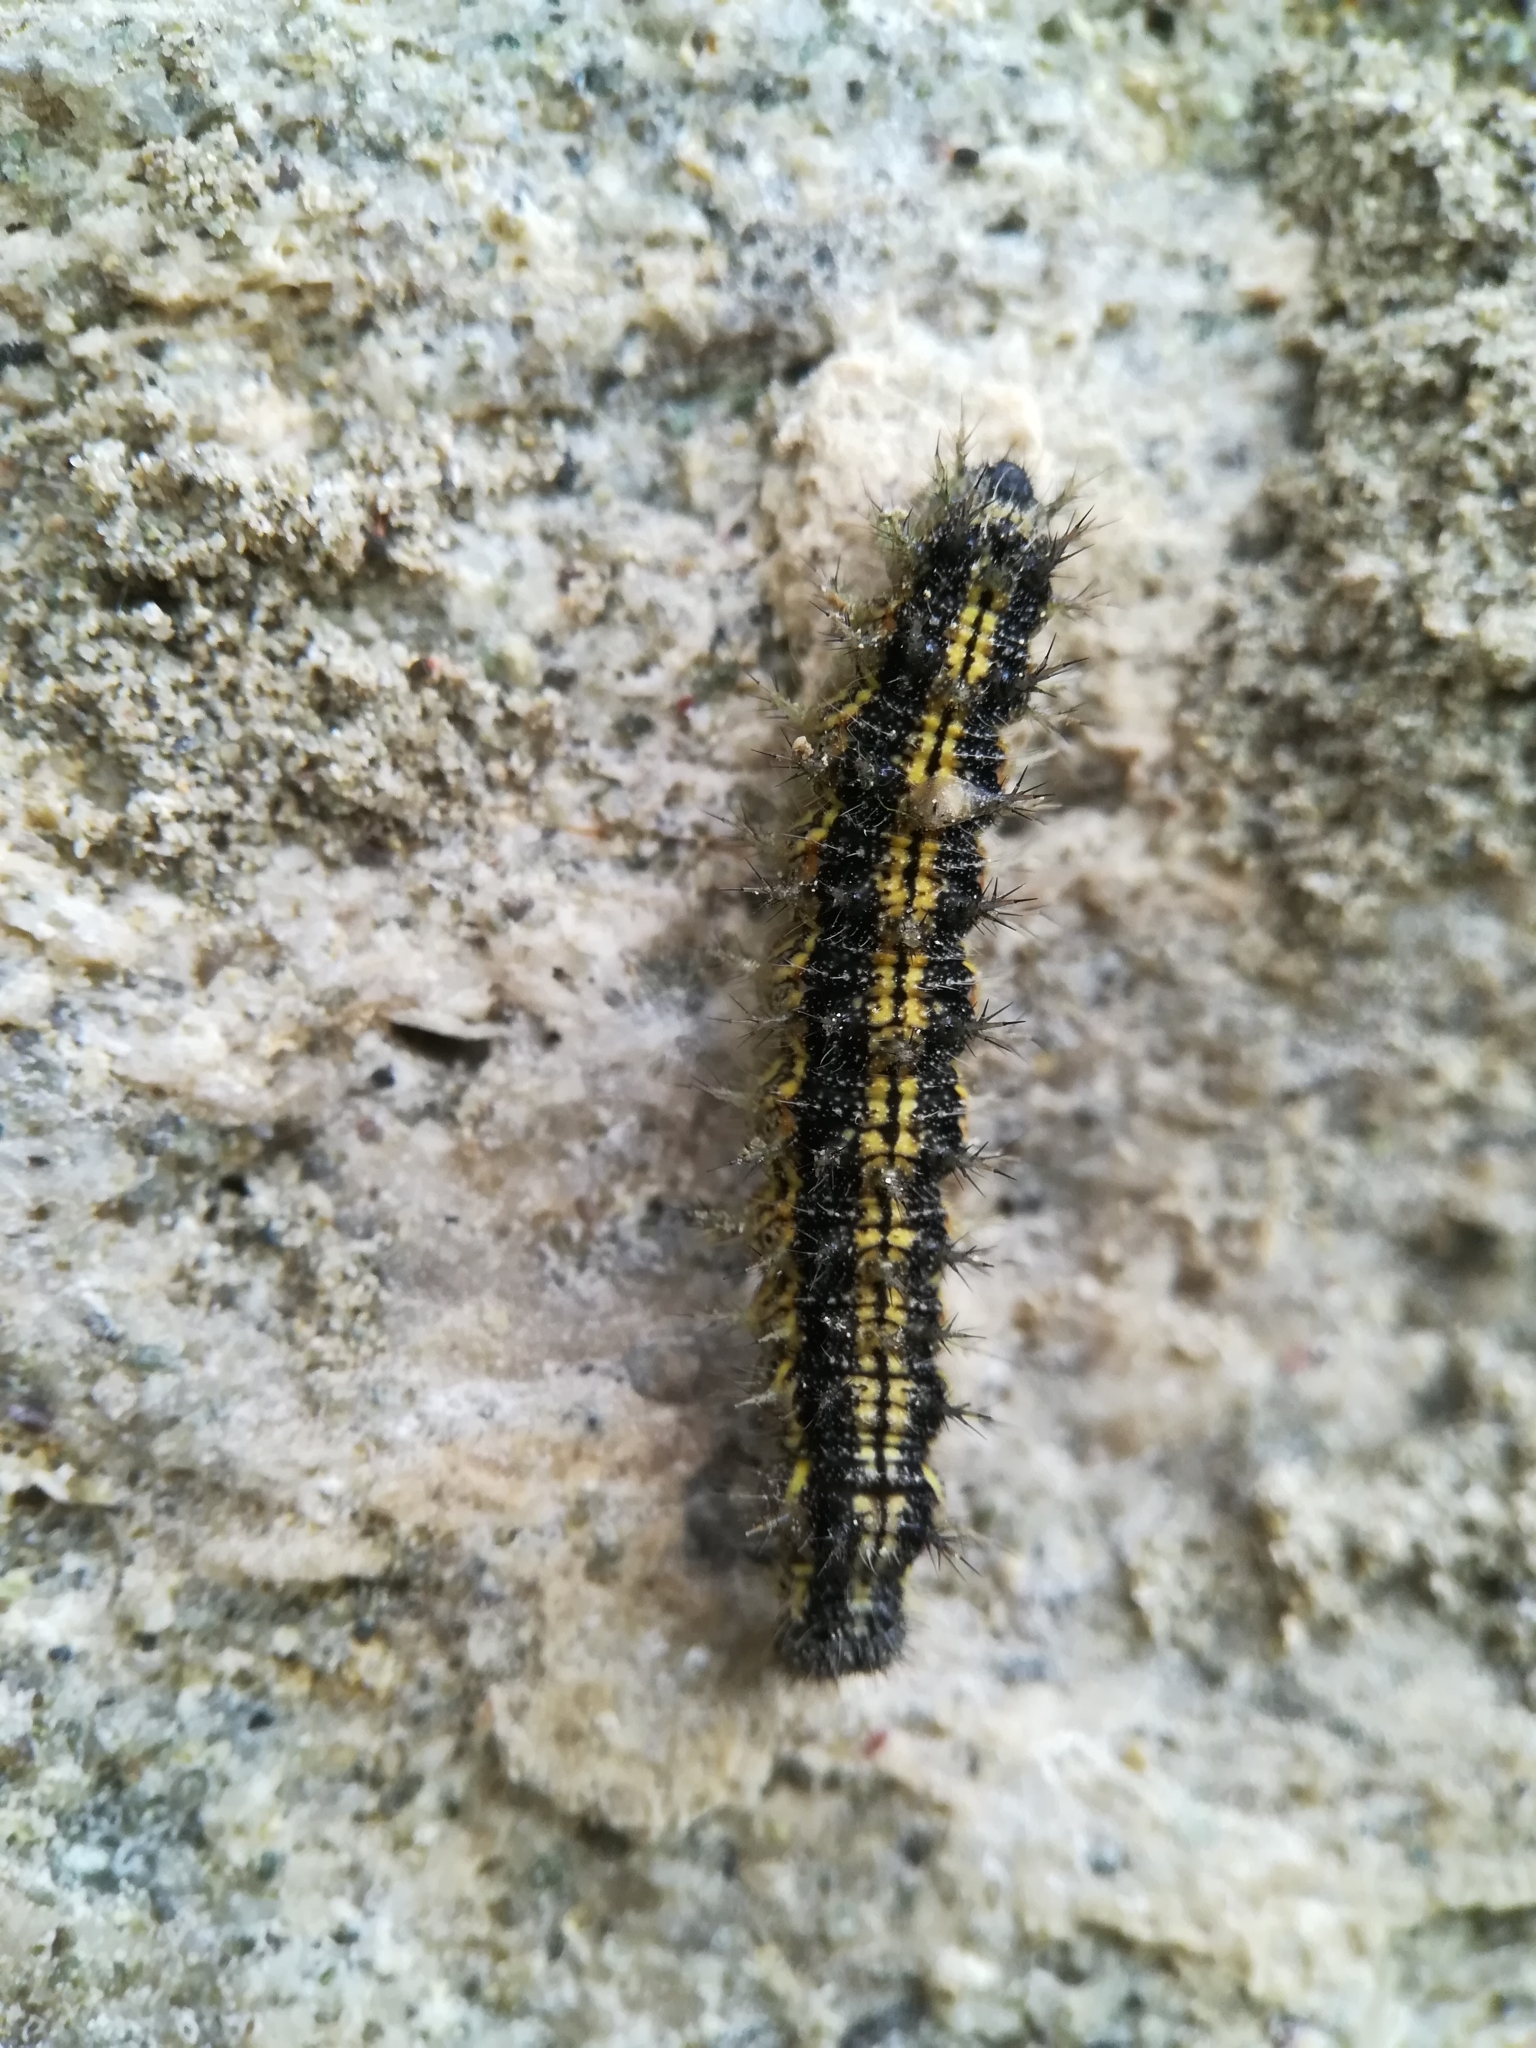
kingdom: Animalia
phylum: Arthropoda
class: Insecta
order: Lepidoptera
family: Nymphalidae
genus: Aglais
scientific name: Aglais urticae
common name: Small tortoiseshell
